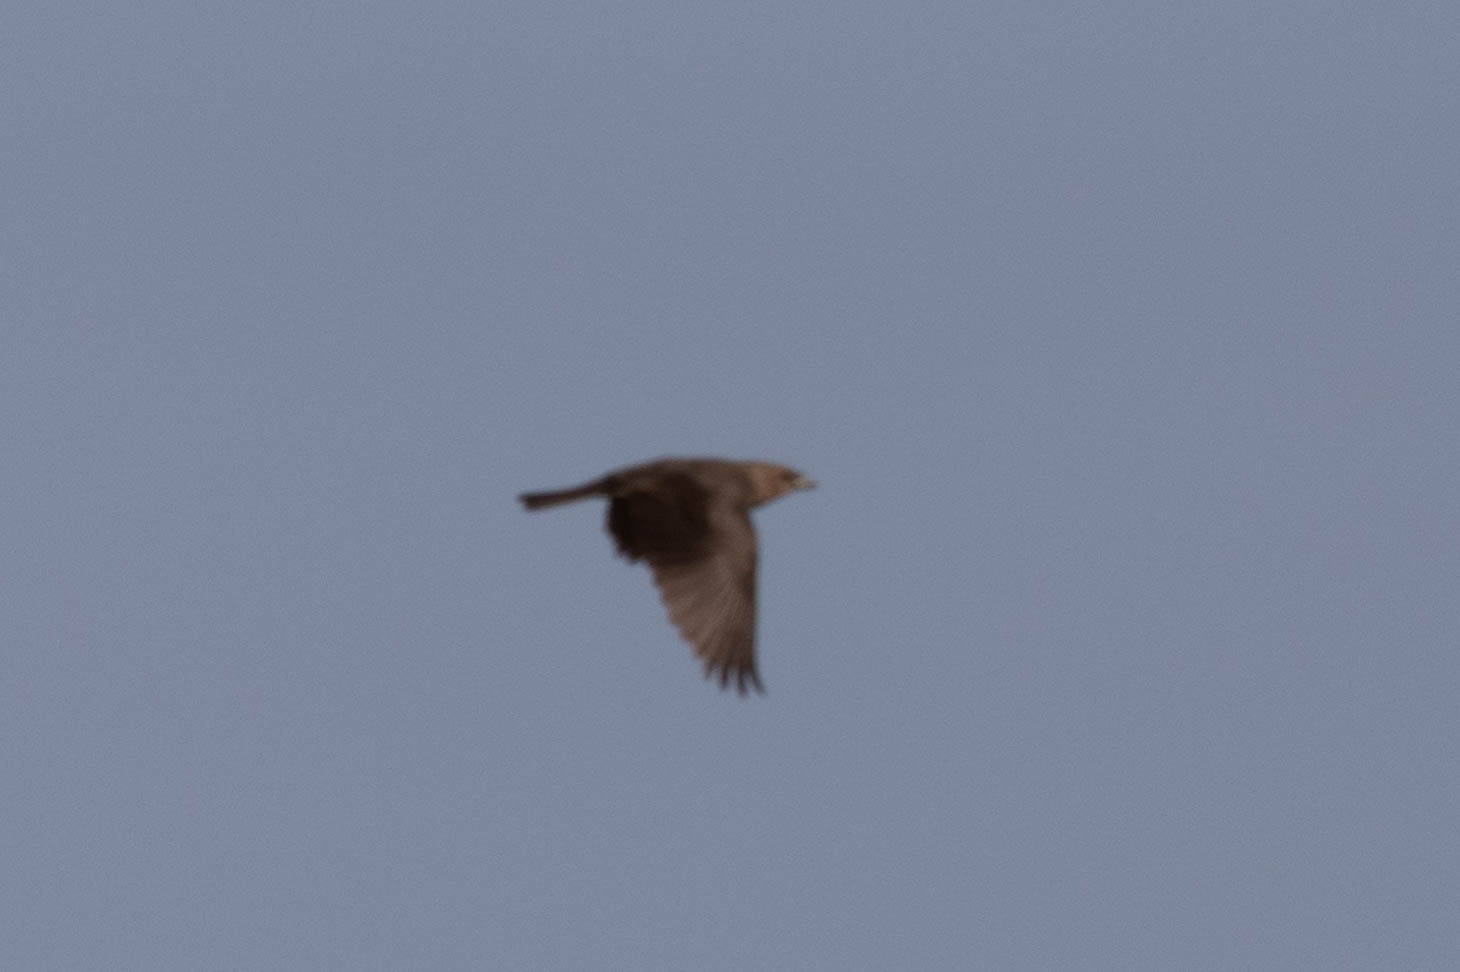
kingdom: Animalia
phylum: Chordata
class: Aves
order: Passeriformes
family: Icteridae
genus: Molothrus
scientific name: Molothrus ater
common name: Brown-headed cowbird
